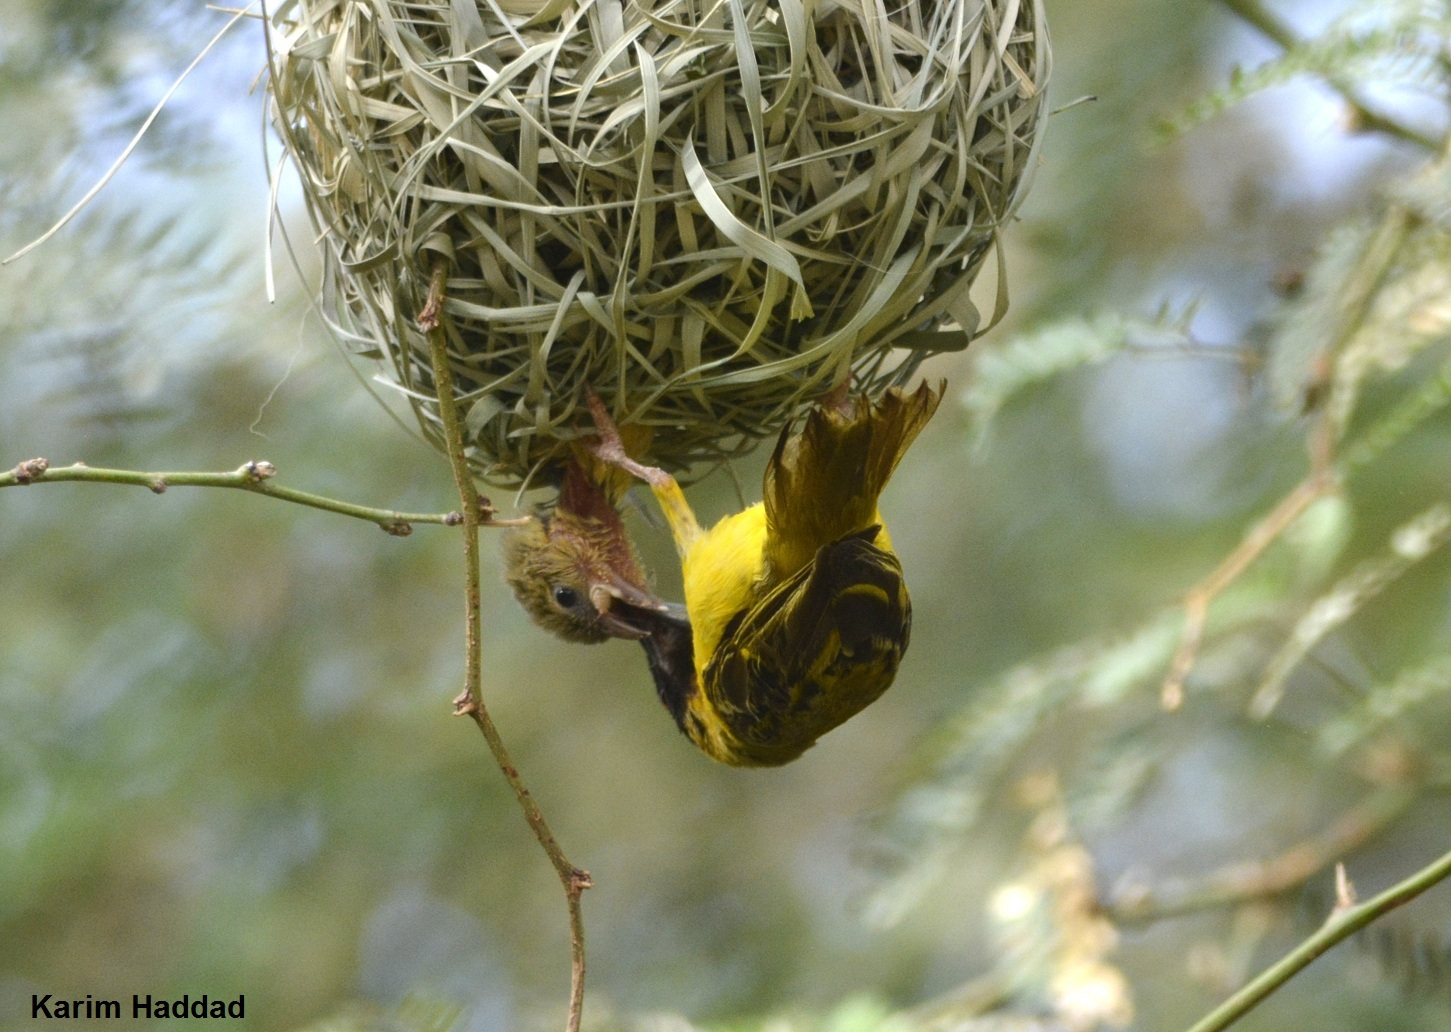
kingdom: Animalia
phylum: Chordata
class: Aves
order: Passeriformes
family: Ploceidae
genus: Ploceus
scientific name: Ploceus vitellinus
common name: Vitelline masked weaver
